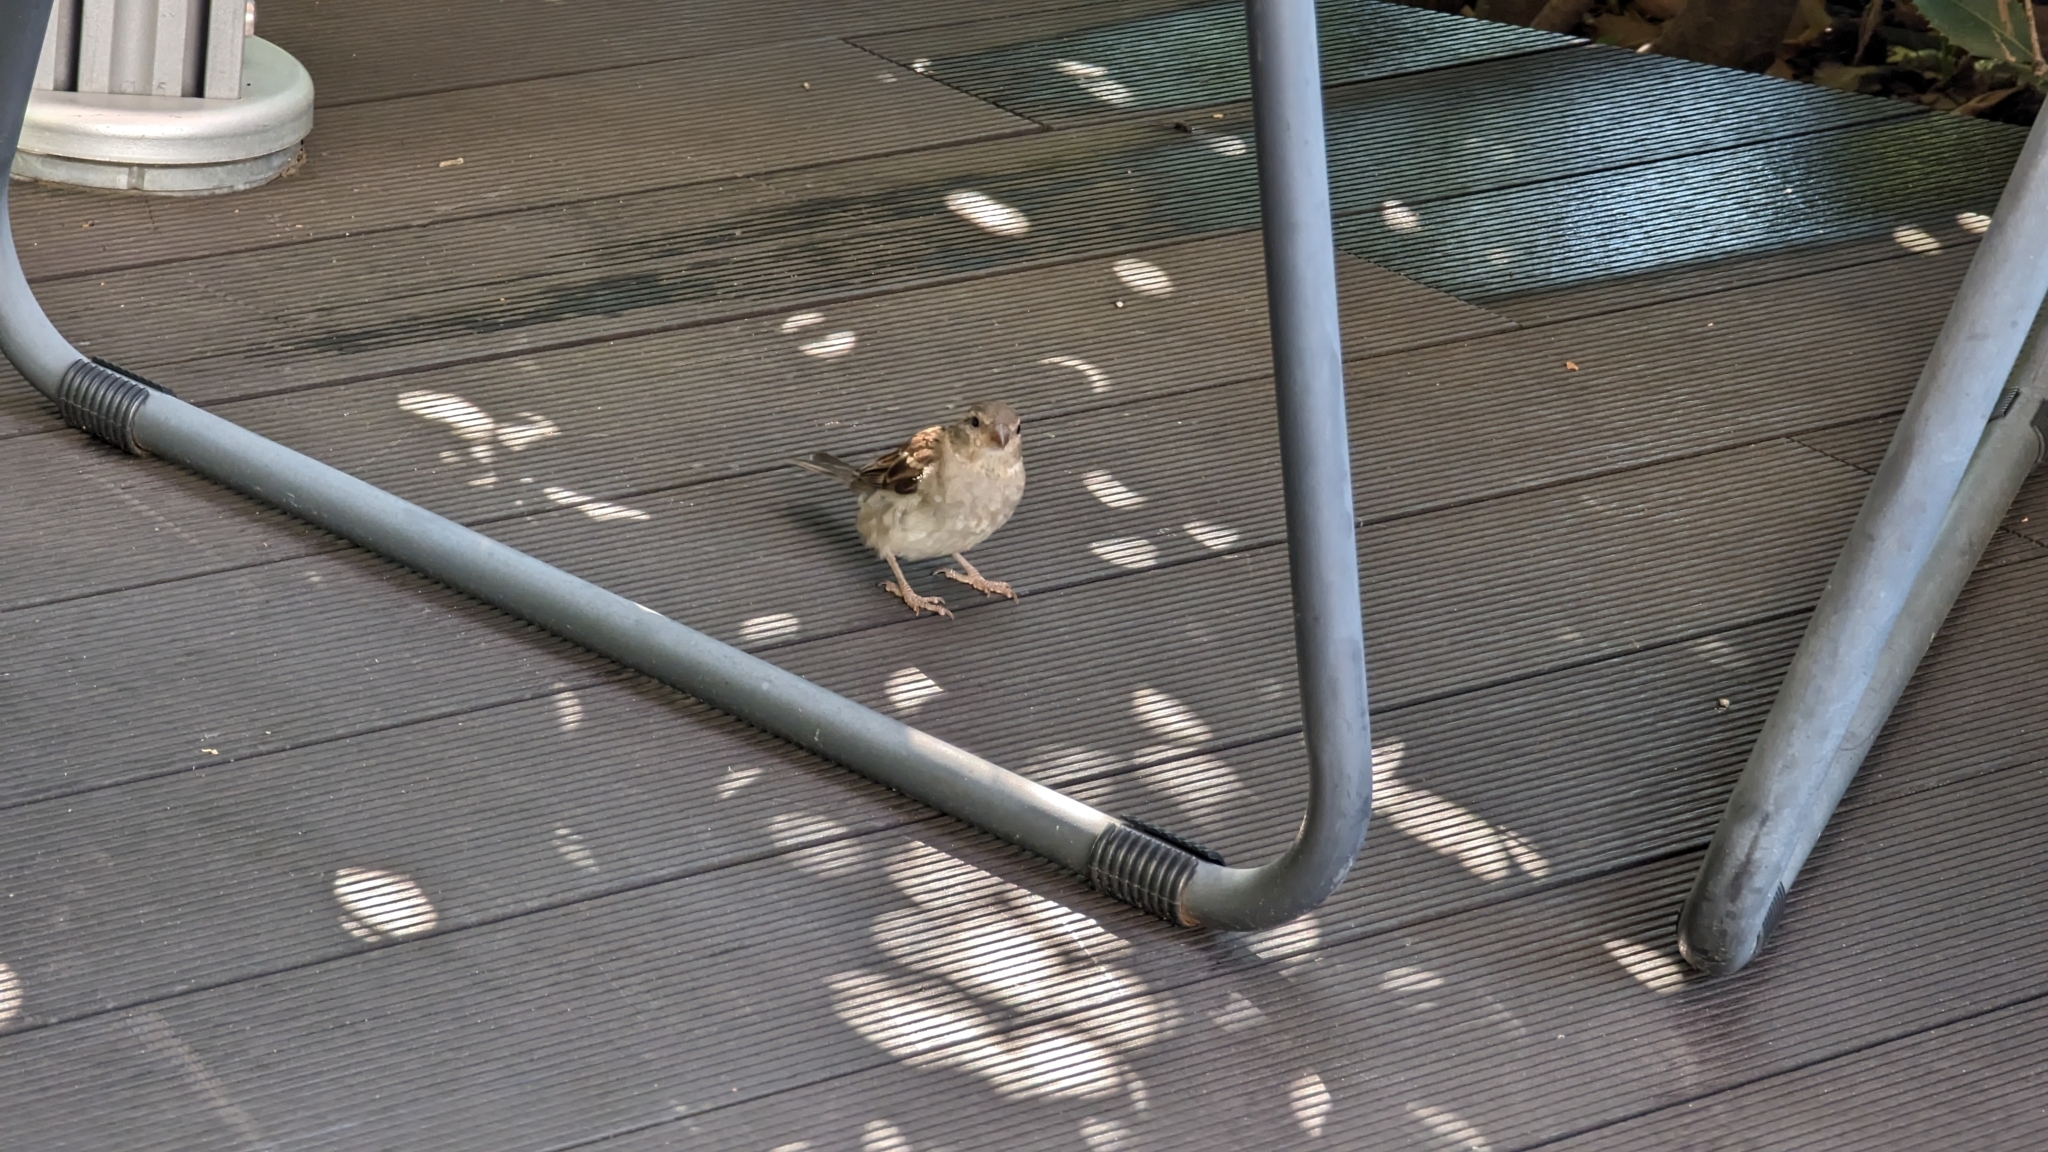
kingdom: Animalia
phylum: Chordata
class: Aves
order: Passeriformes
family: Passeridae
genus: Passer
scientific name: Passer domesticus
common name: House sparrow
